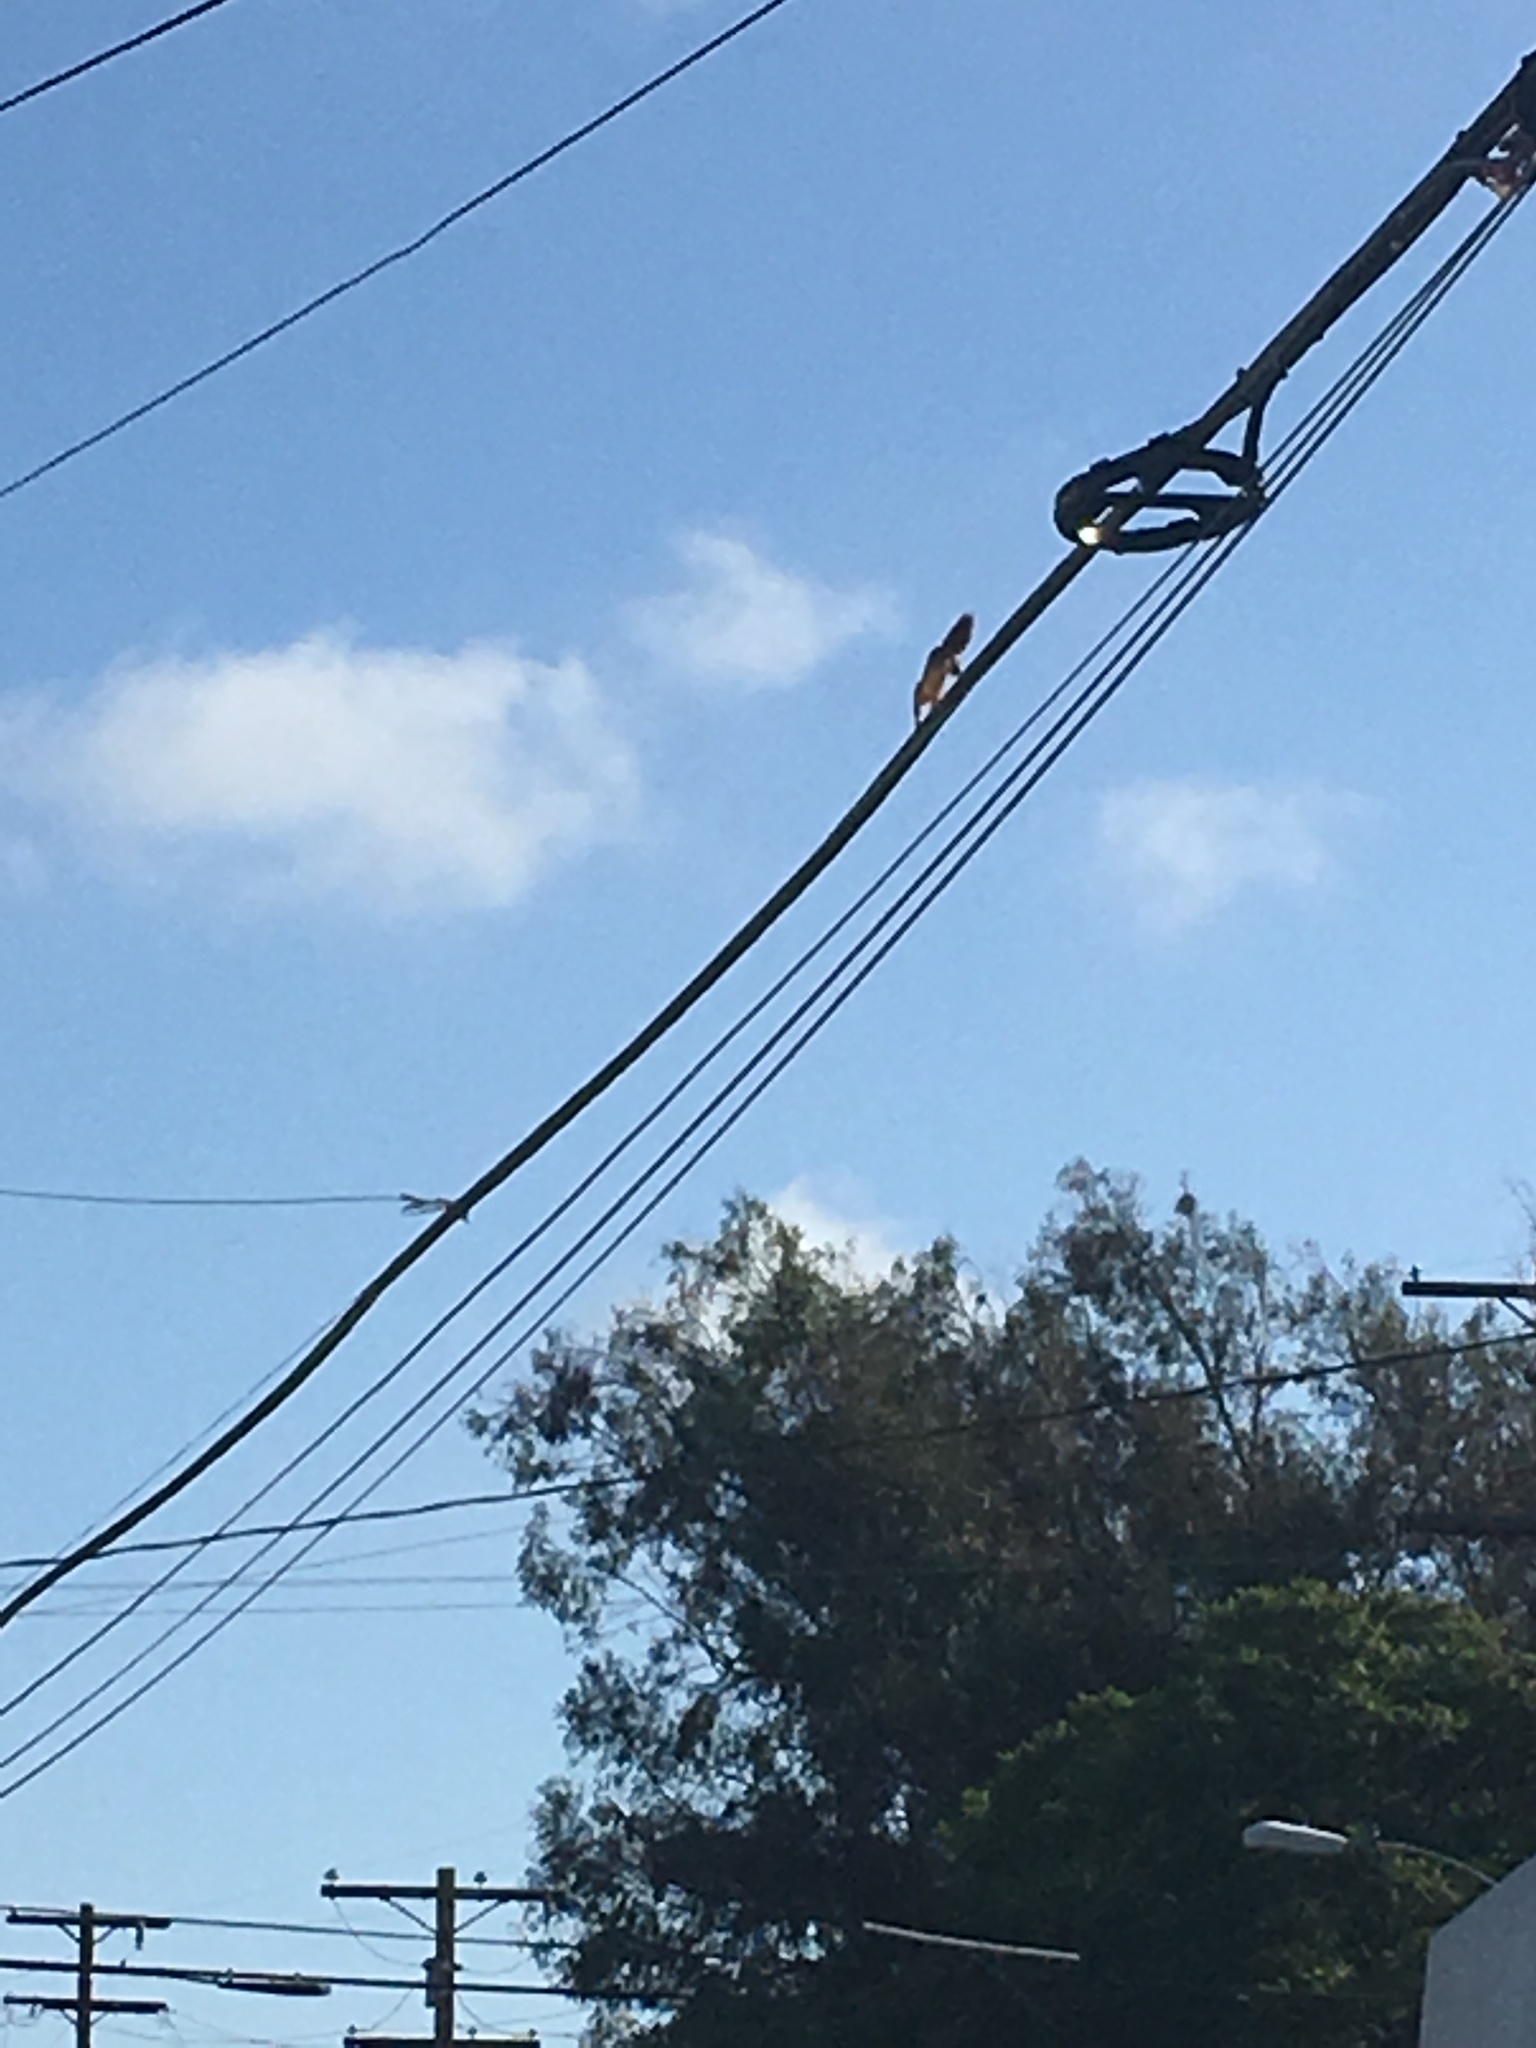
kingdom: Animalia
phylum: Chordata
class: Mammalia
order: Rodentia
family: Sciuridae
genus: Sciurus
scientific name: Sciurus niger
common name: Fox squirrel
